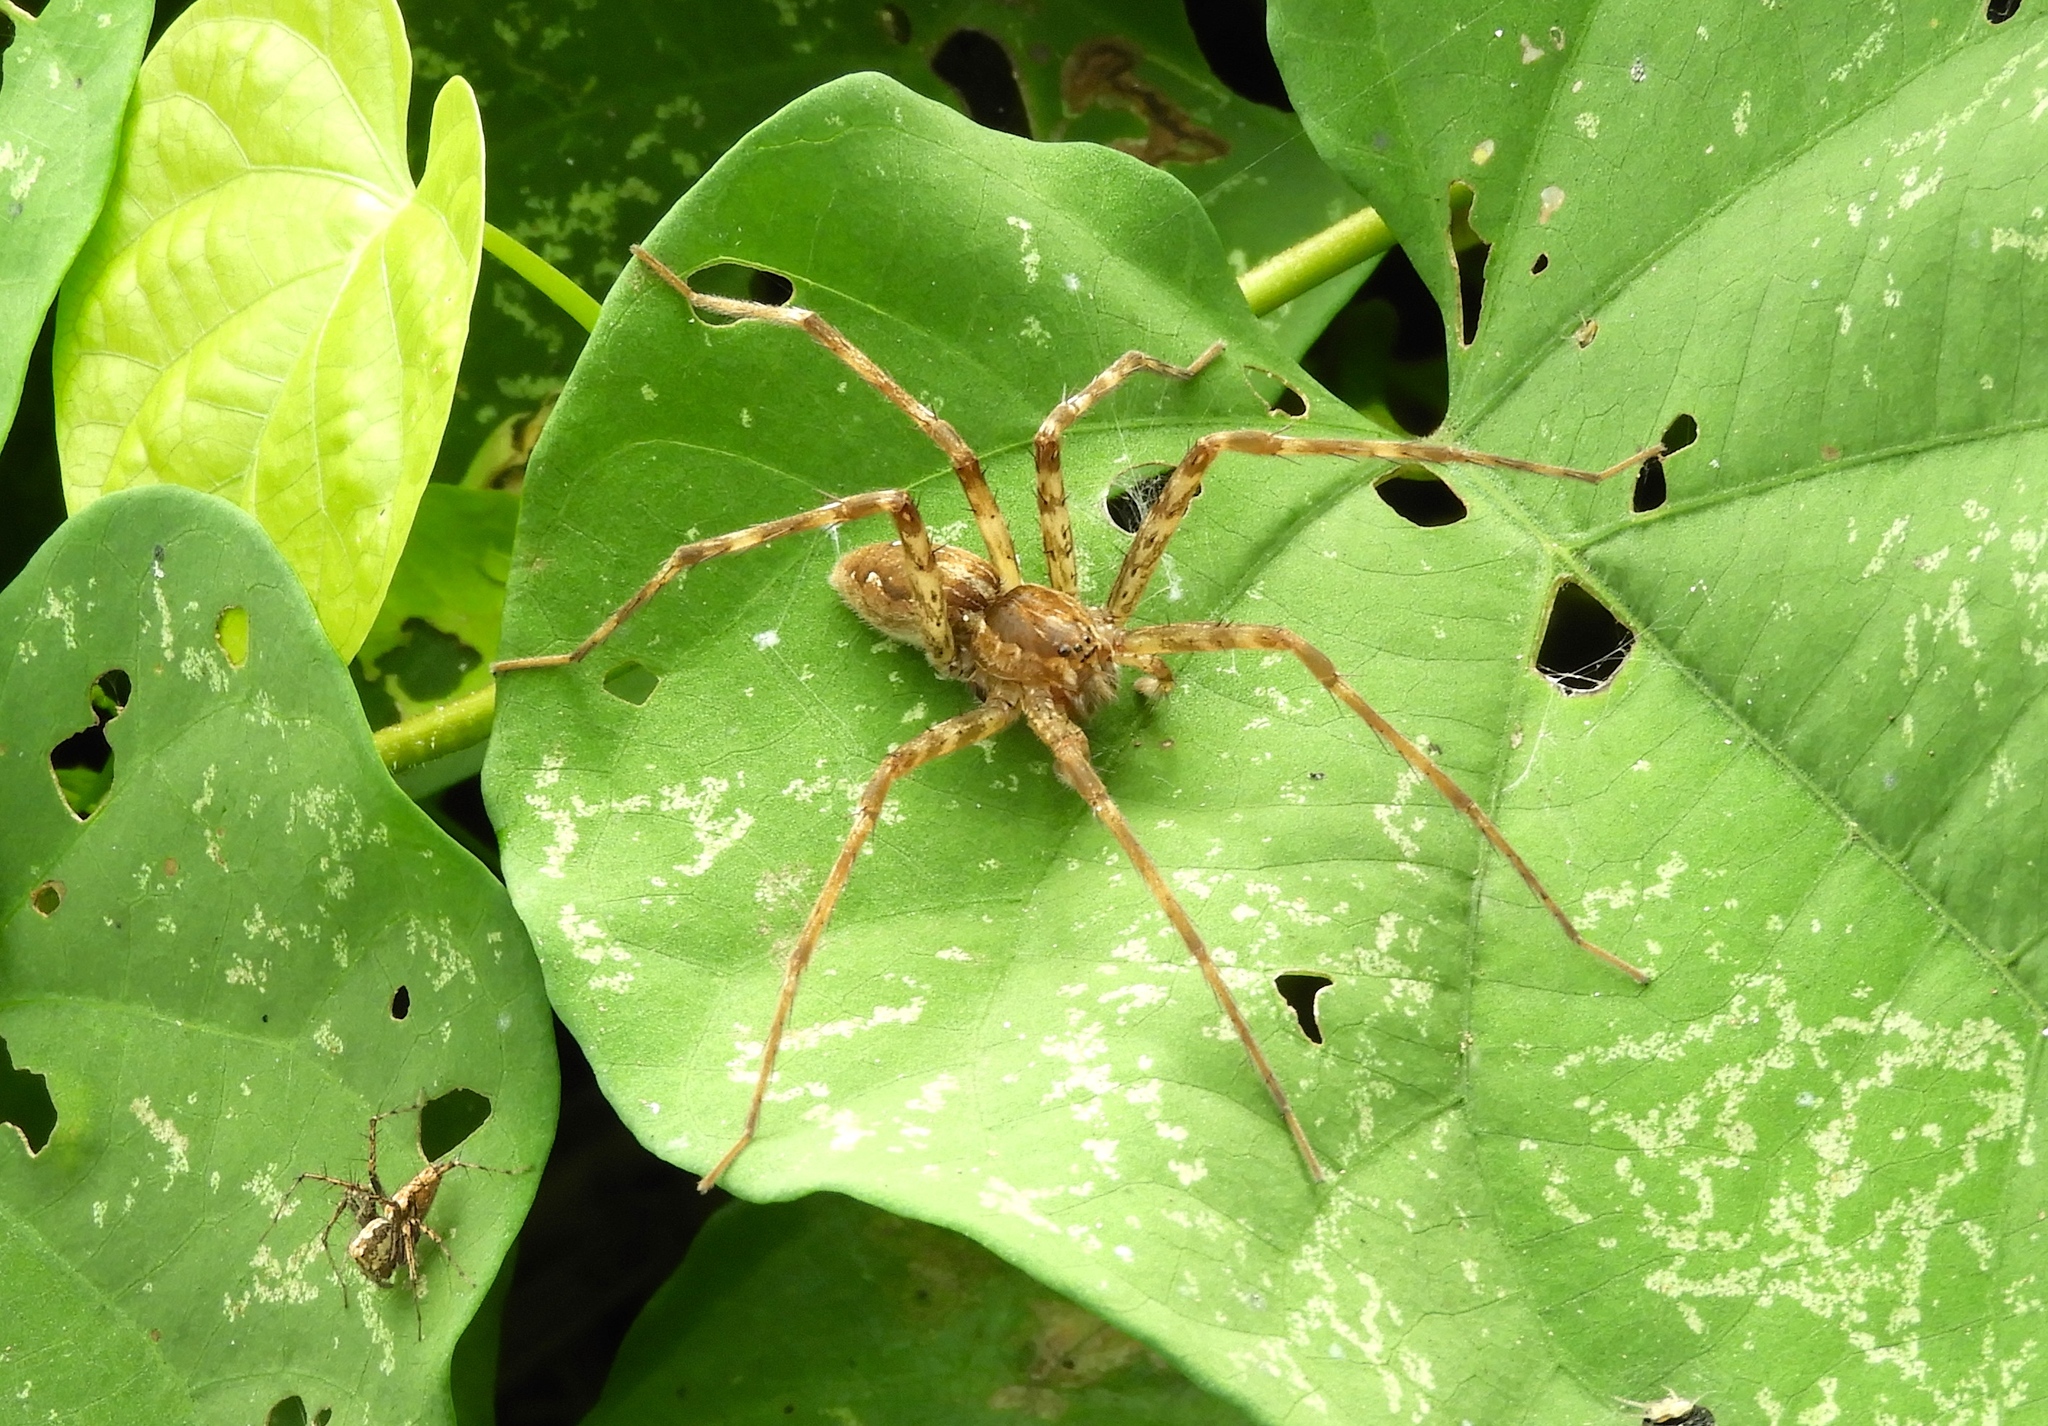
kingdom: Animalia
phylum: Arthropoda
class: Arachnida
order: Araneae
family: Pisauridae
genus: Tinus
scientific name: Tinus
